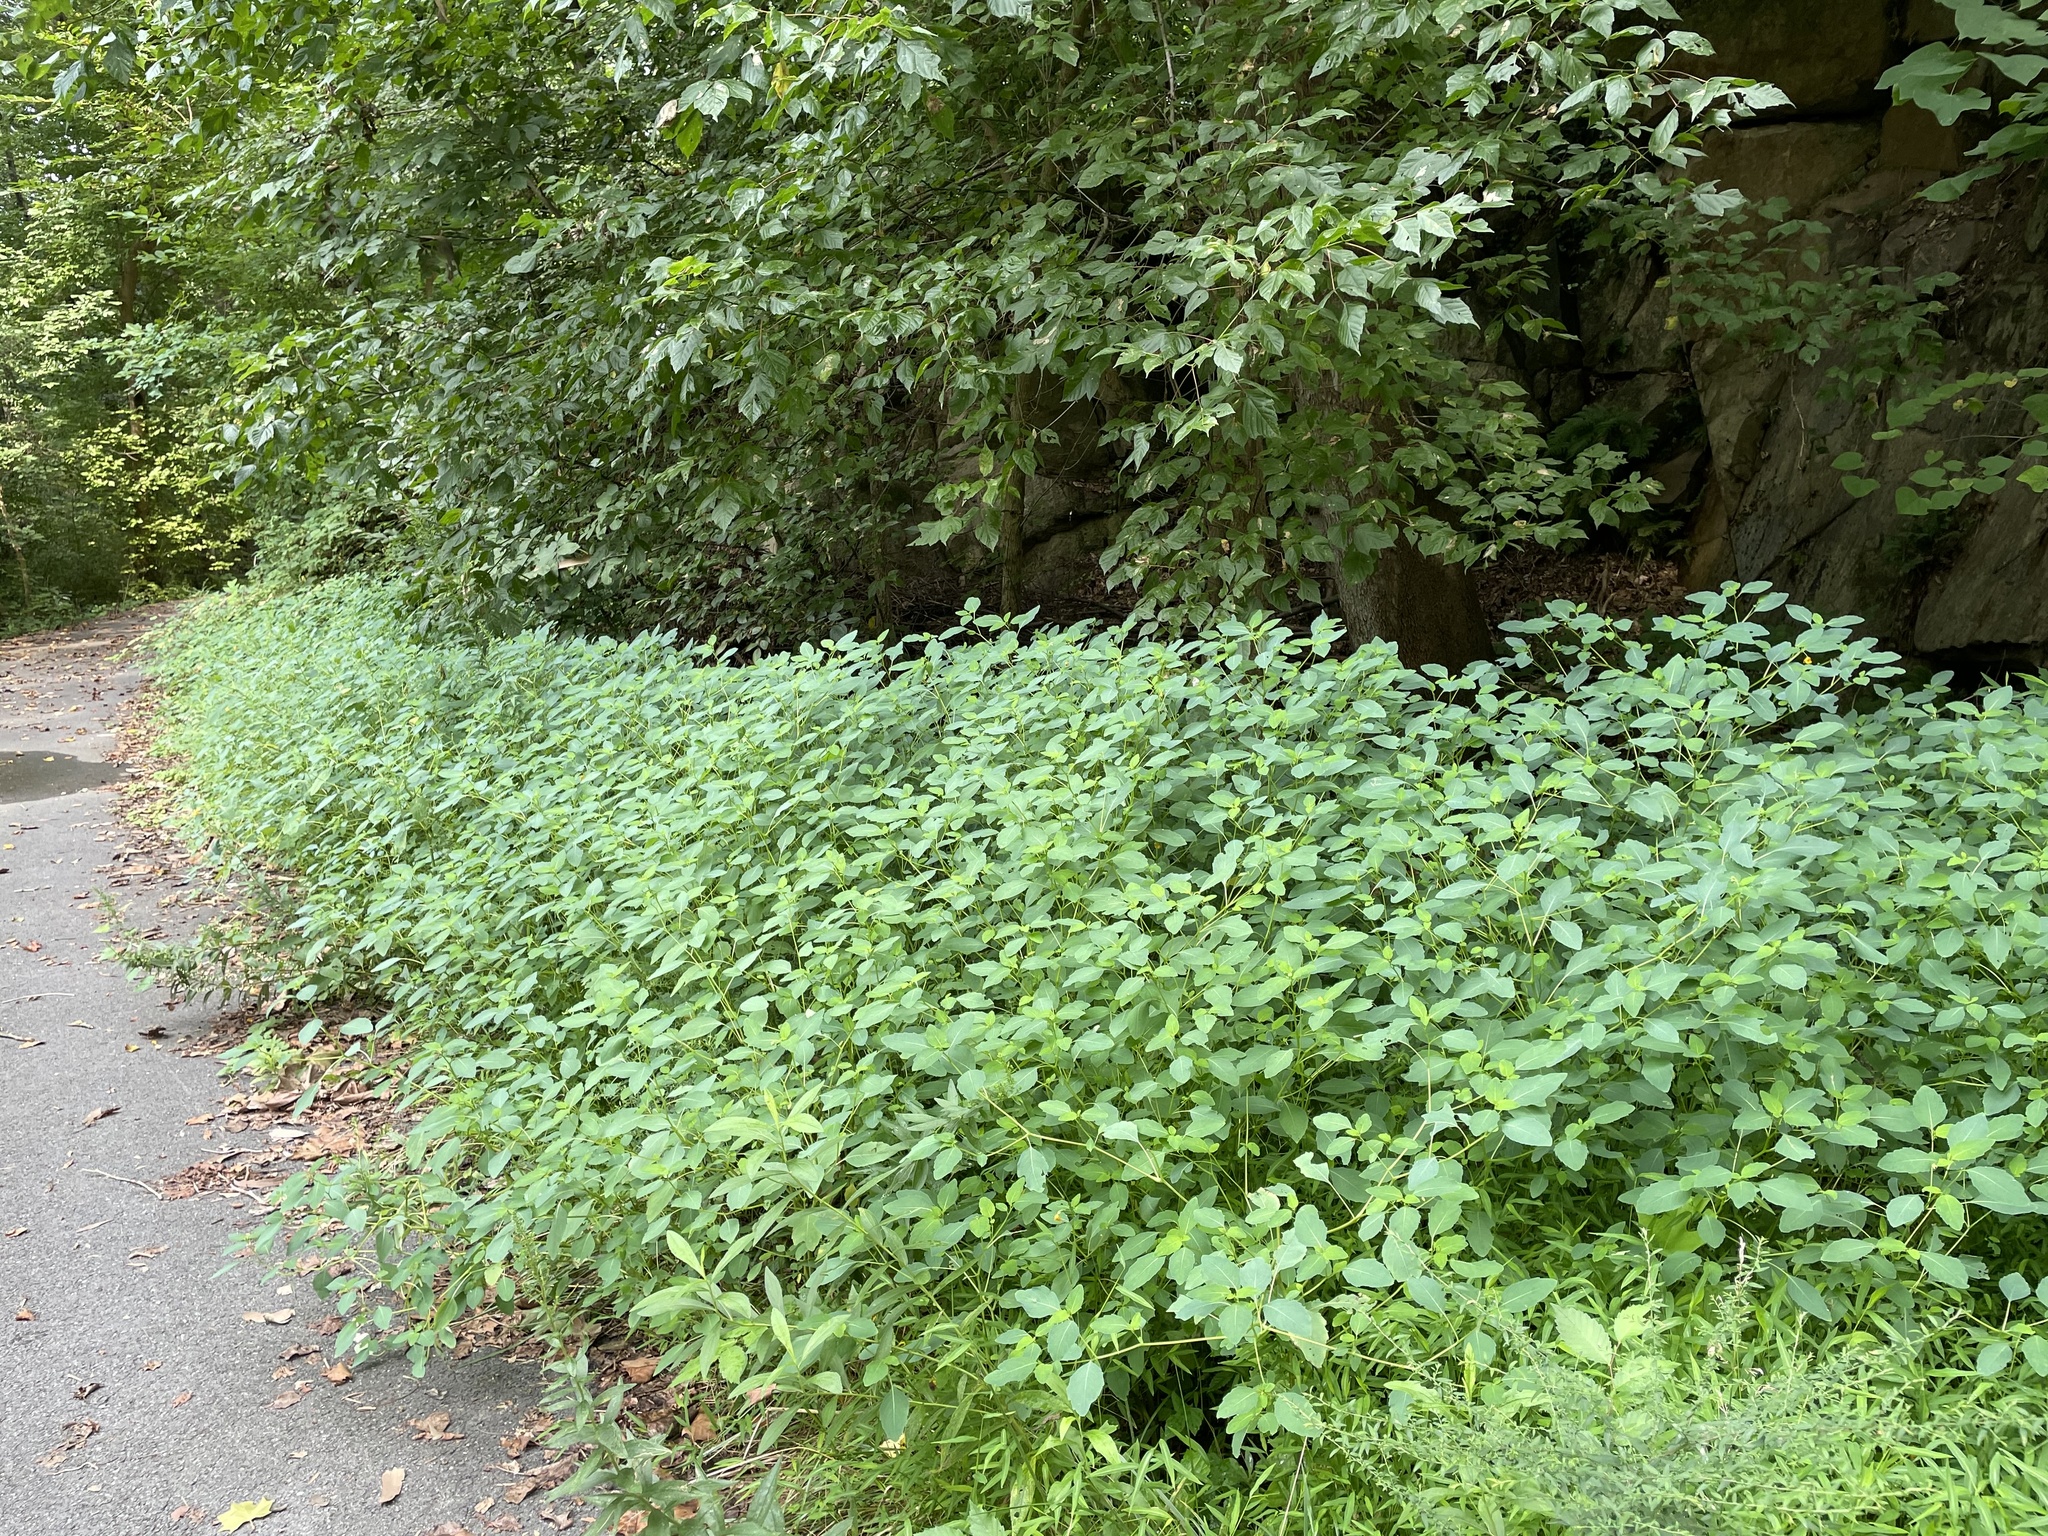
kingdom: Plantae
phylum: Tracheophyta
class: Magnoliopsida
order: Ericales
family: Balsaminaceae
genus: Impatiens
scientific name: Impatiens capensis
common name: Orange balsam
